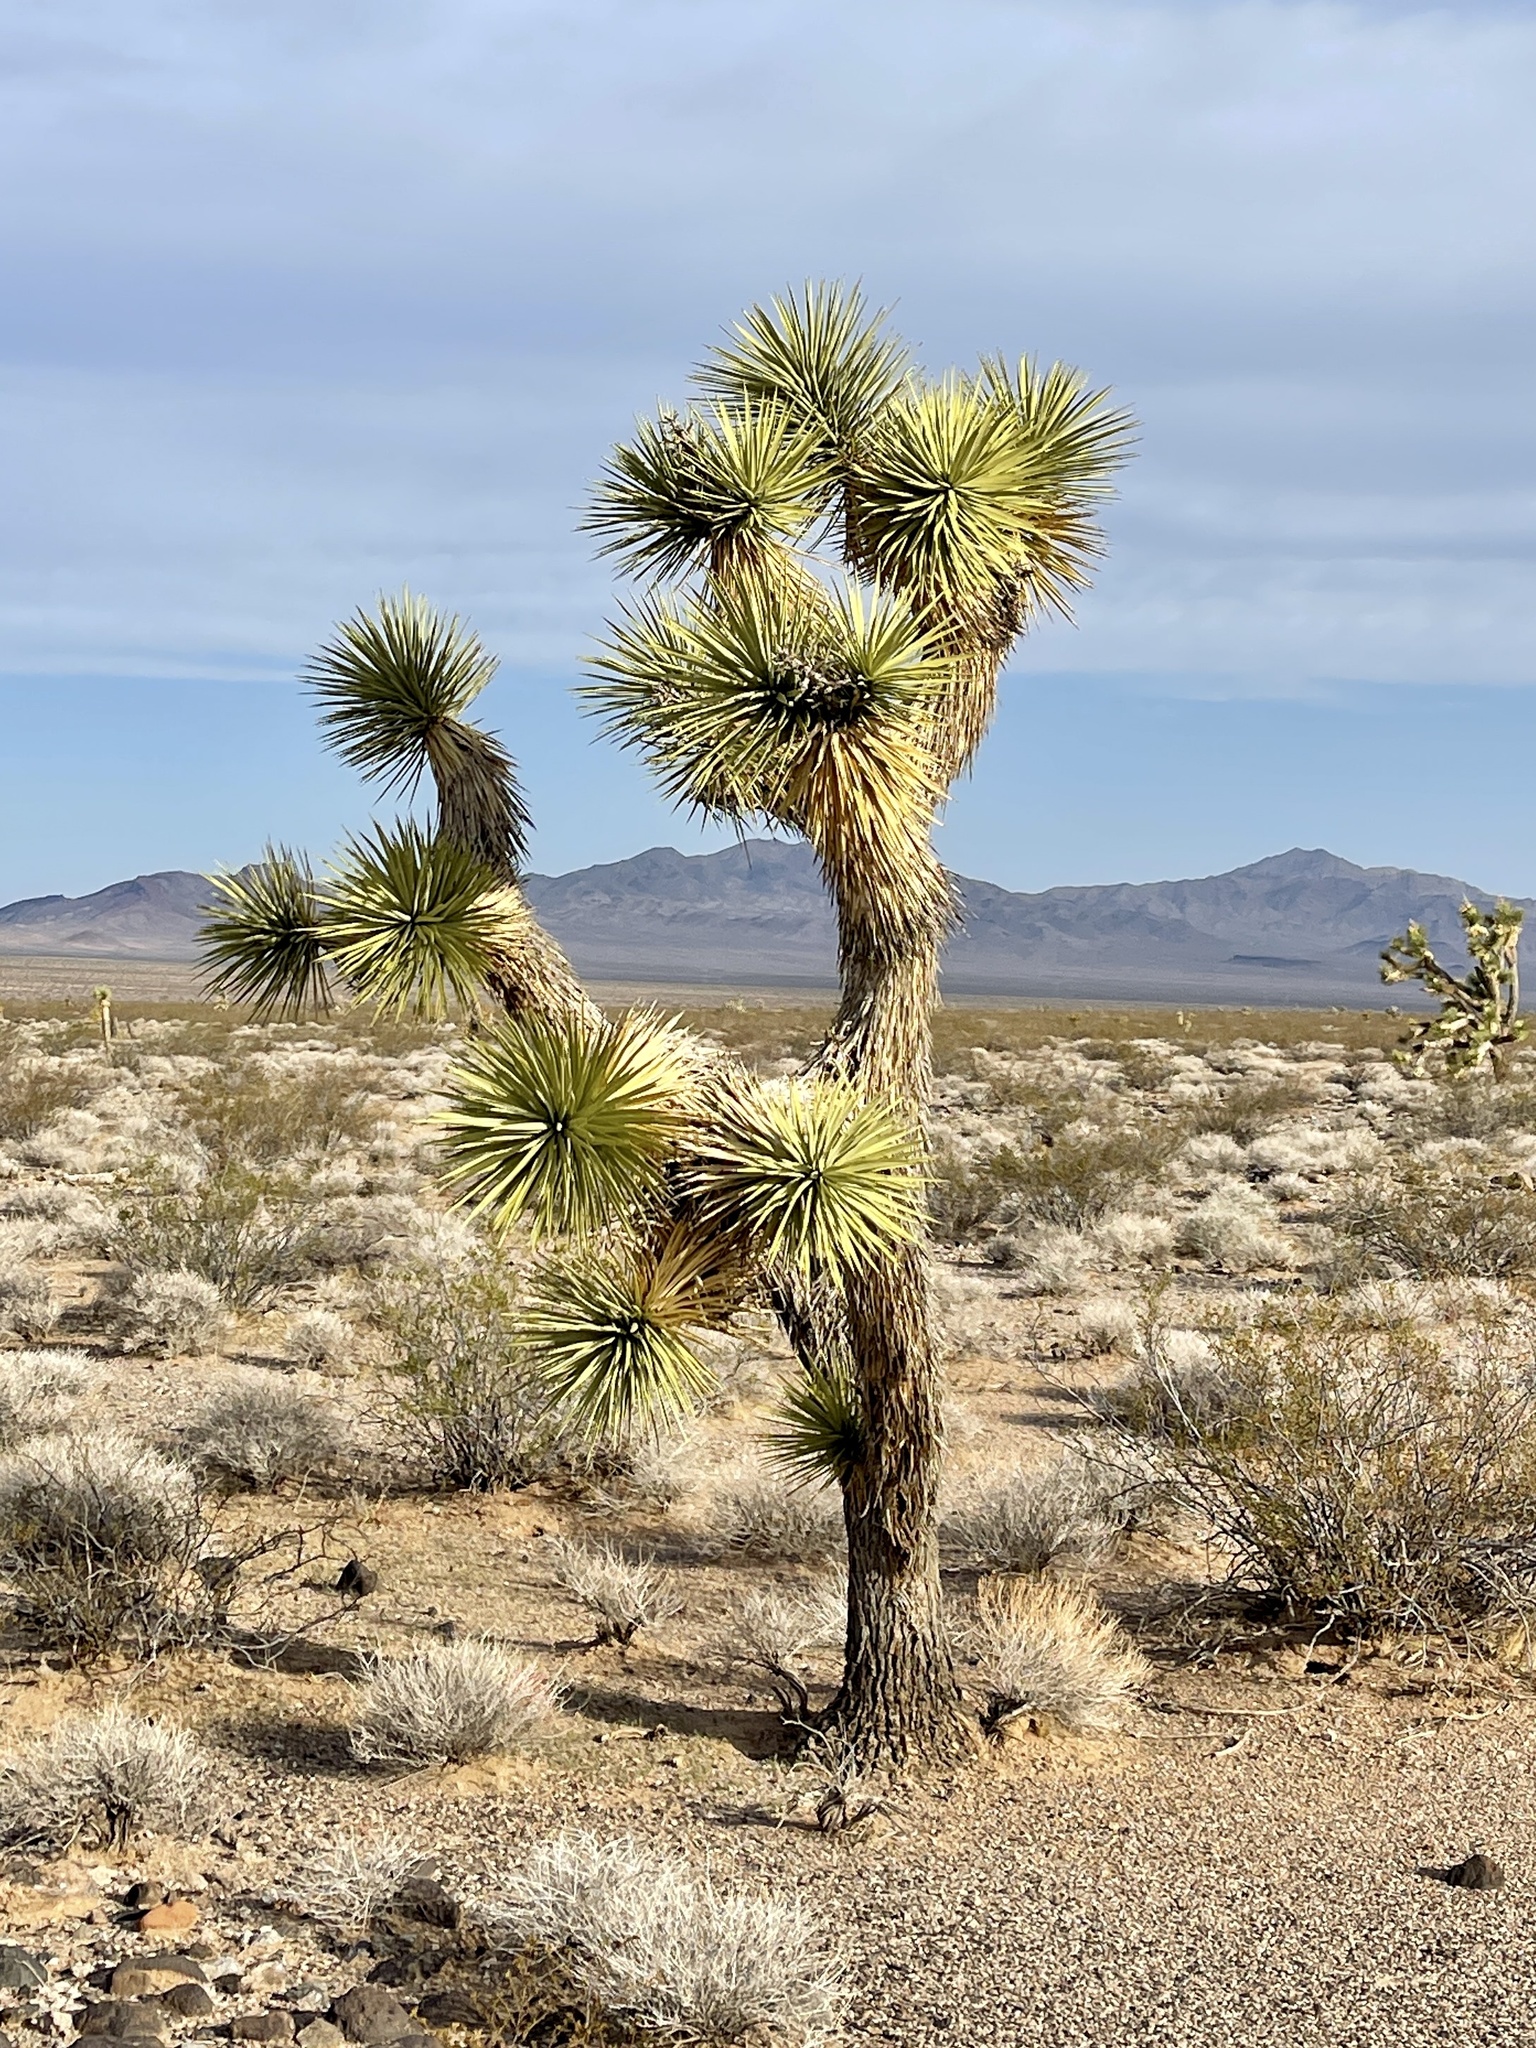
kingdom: Plantae
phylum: Tracheophyta
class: Liliopsida
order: Asparagales
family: Asparagaceae
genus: Yucca
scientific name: Yucca brevifolia
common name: Joshua tree
